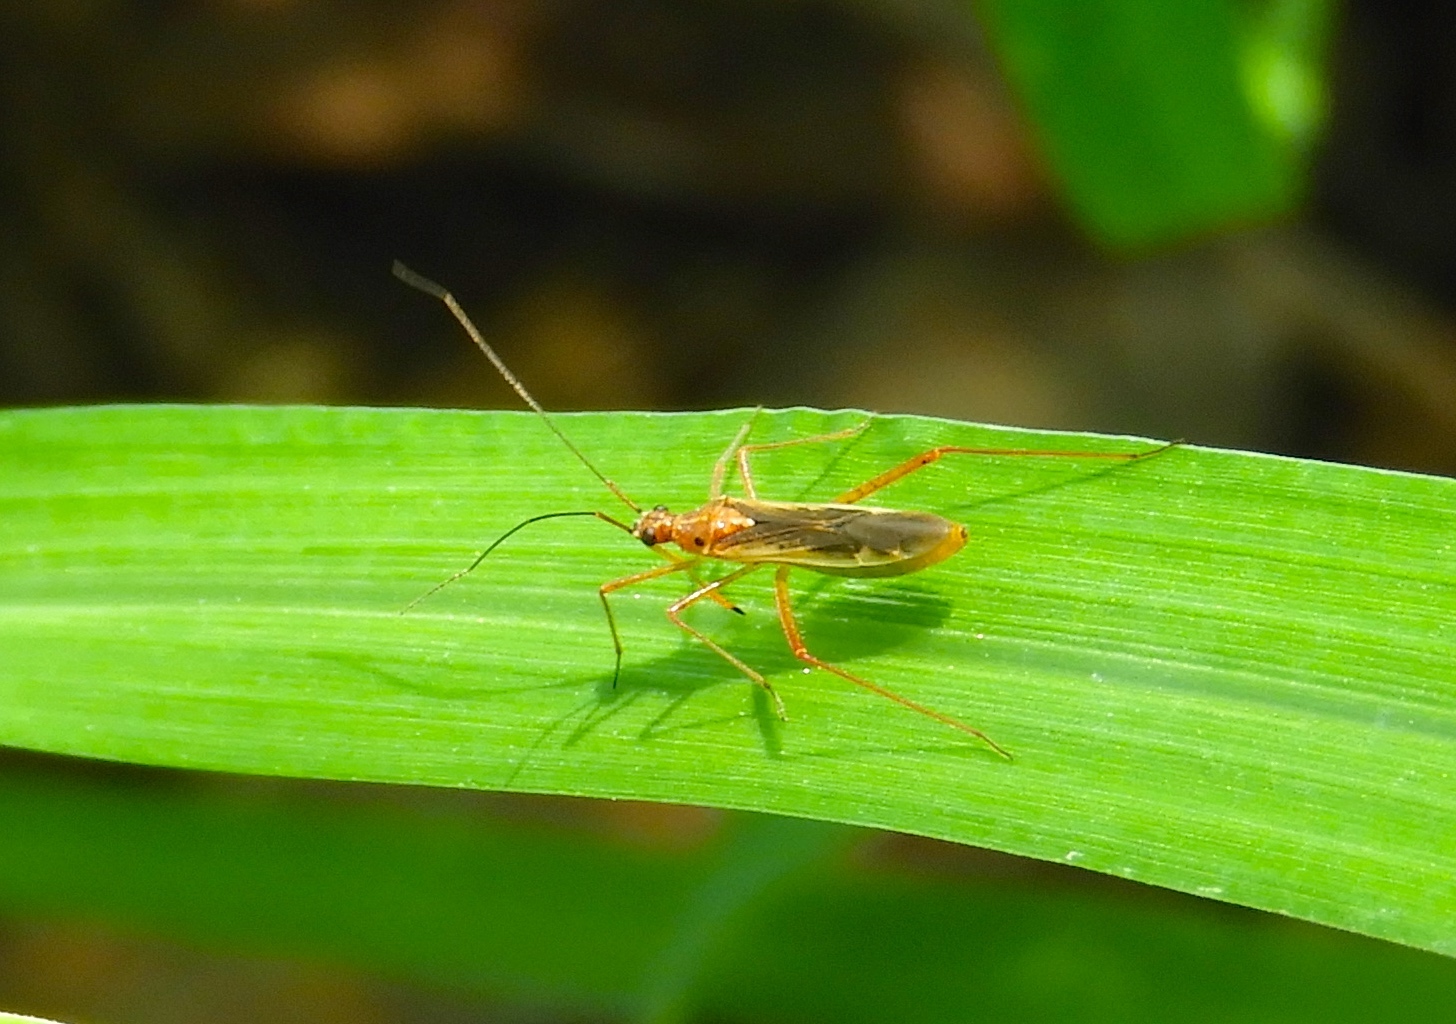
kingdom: Animalia
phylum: Arthropoda
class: Insecta
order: Hemiptera
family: Miridae
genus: Collaria
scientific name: Collaria
